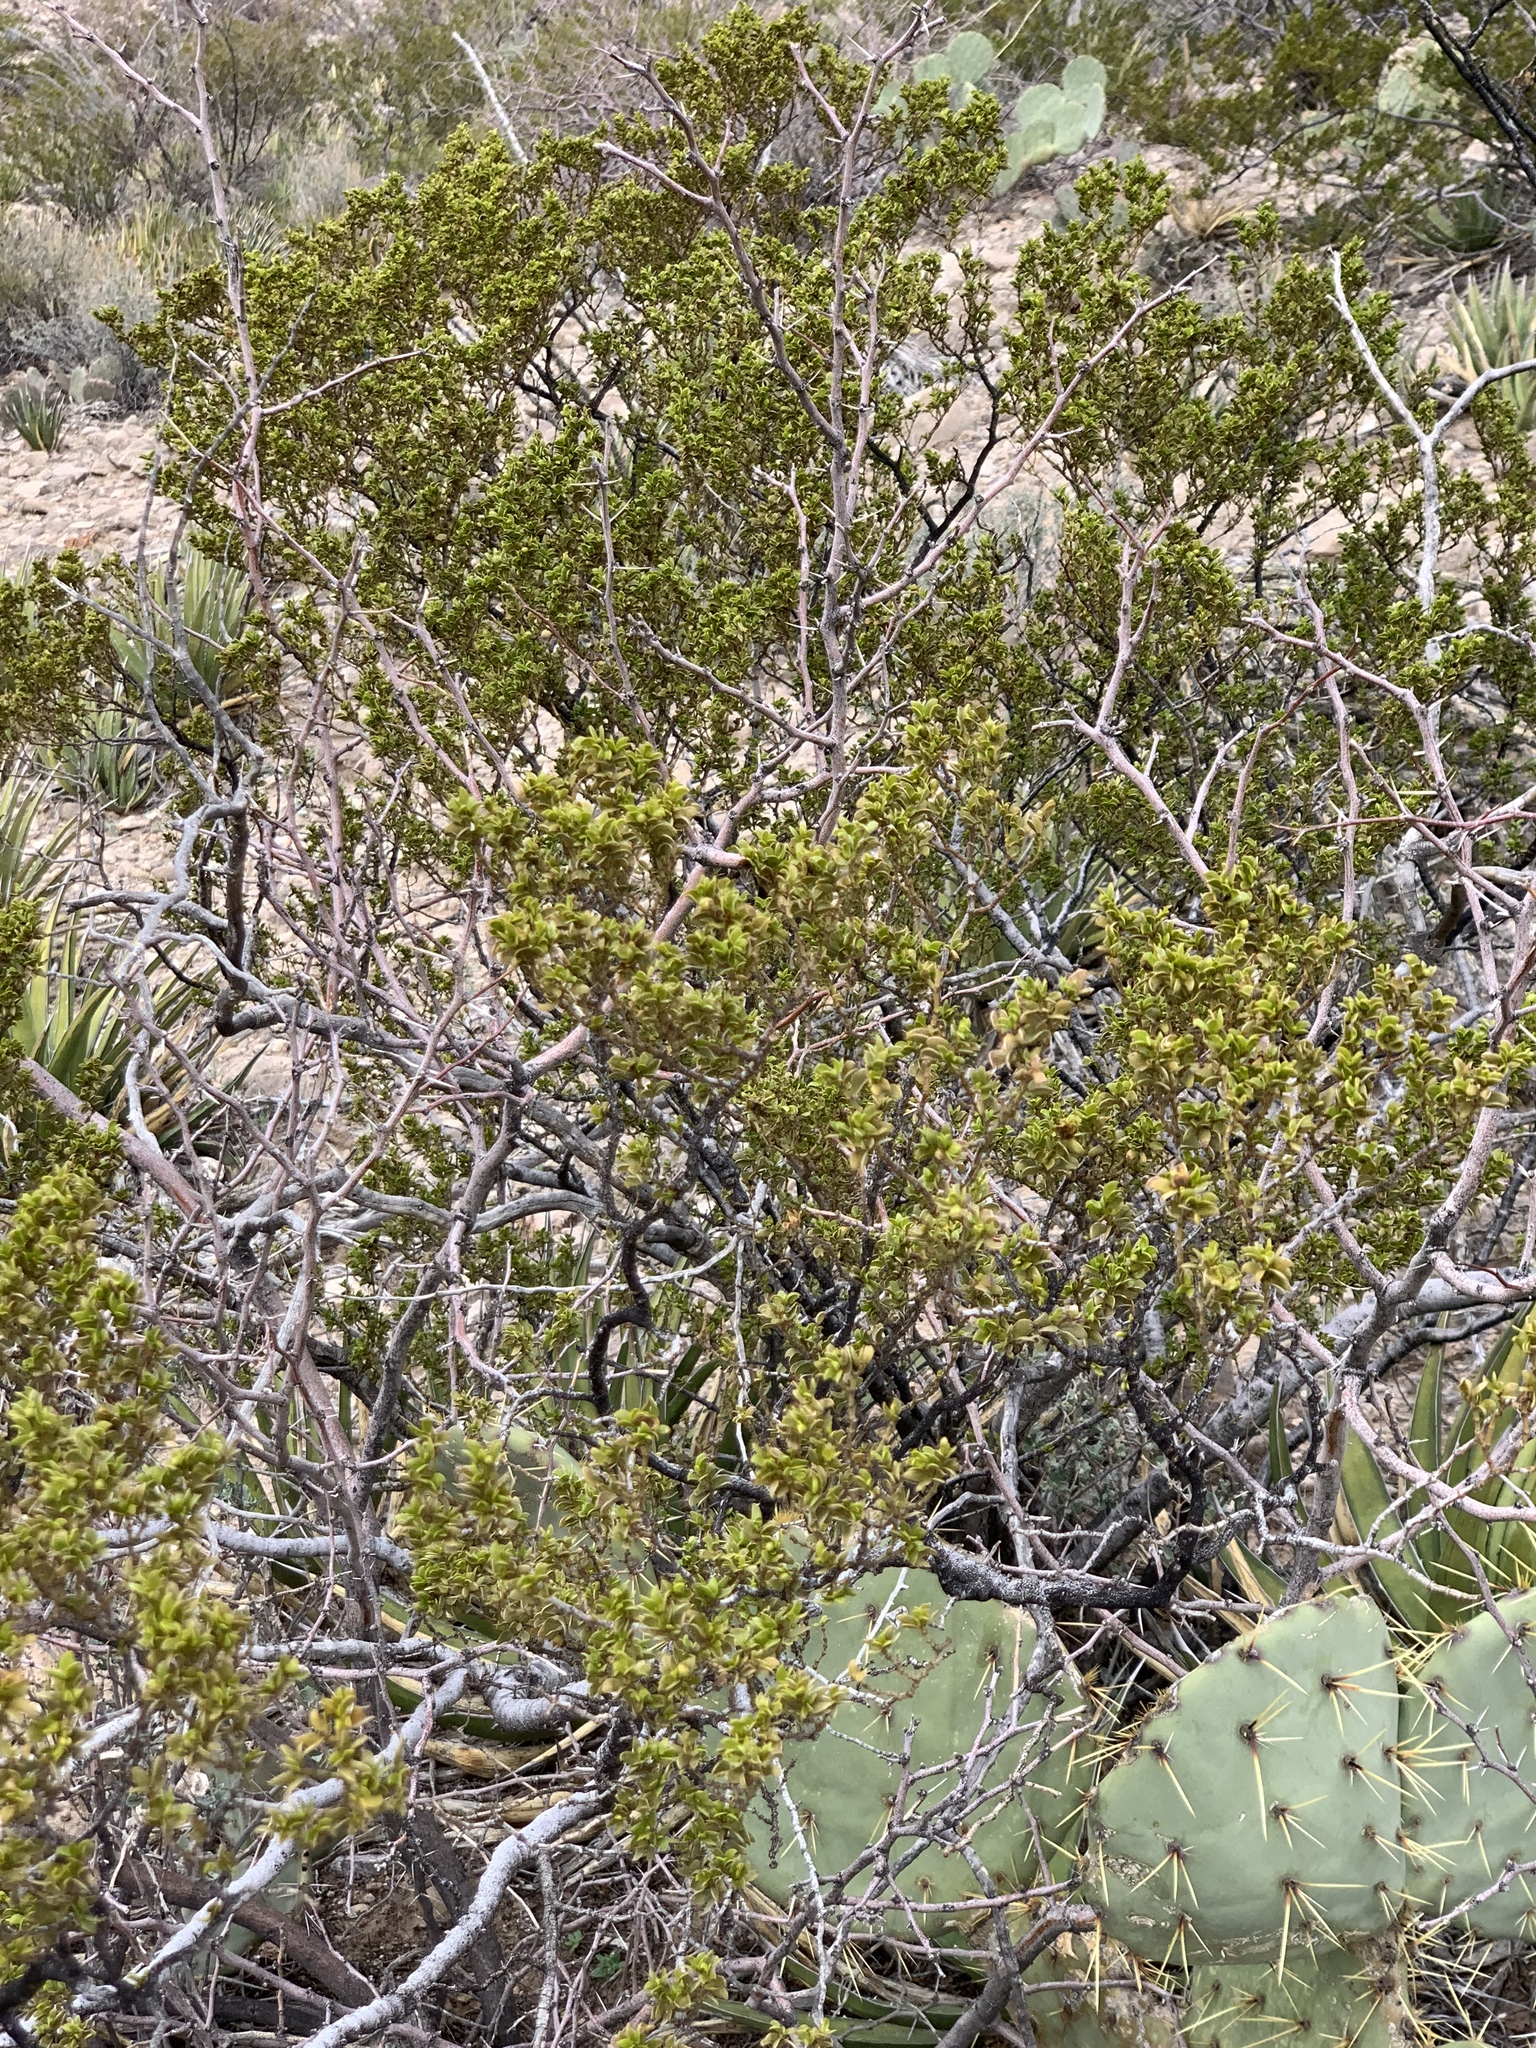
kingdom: Plantae
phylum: Tracheophyta
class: Magnoliopsida
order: Zygophyllales
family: Zygophyllaceae
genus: Larrea
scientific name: Larrea tridentata
